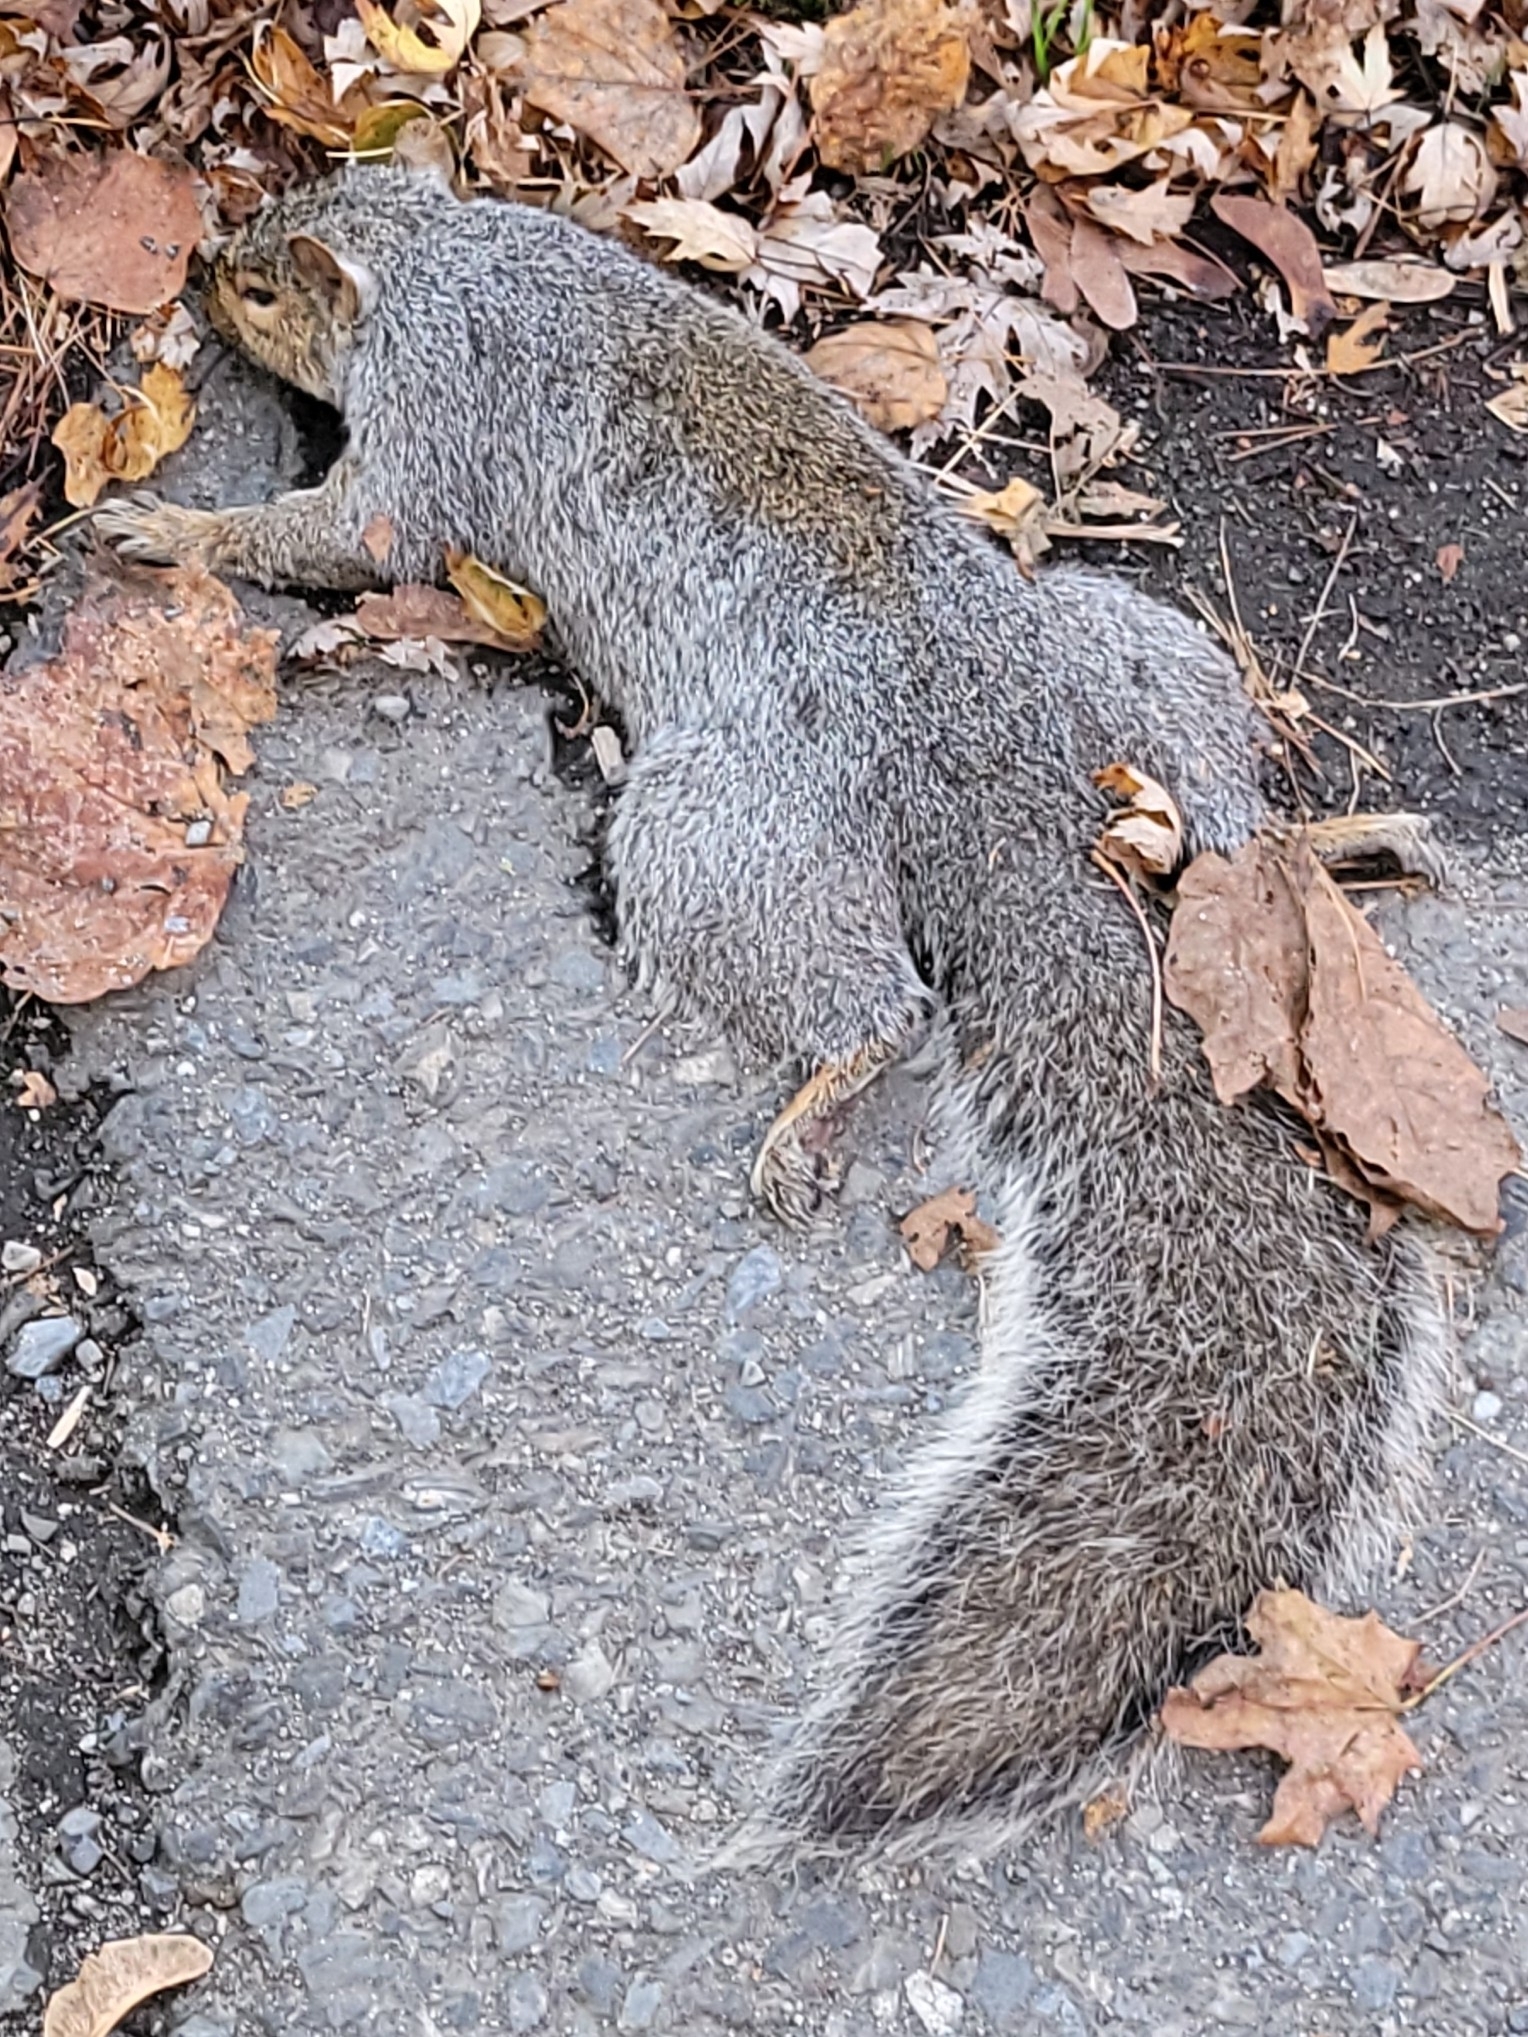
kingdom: Animalia
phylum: Chordata
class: Mammalia
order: Rodentia
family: Sciuridae
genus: Sciurus
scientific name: Sciurus carolinensis
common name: Eastern gray squirrel
